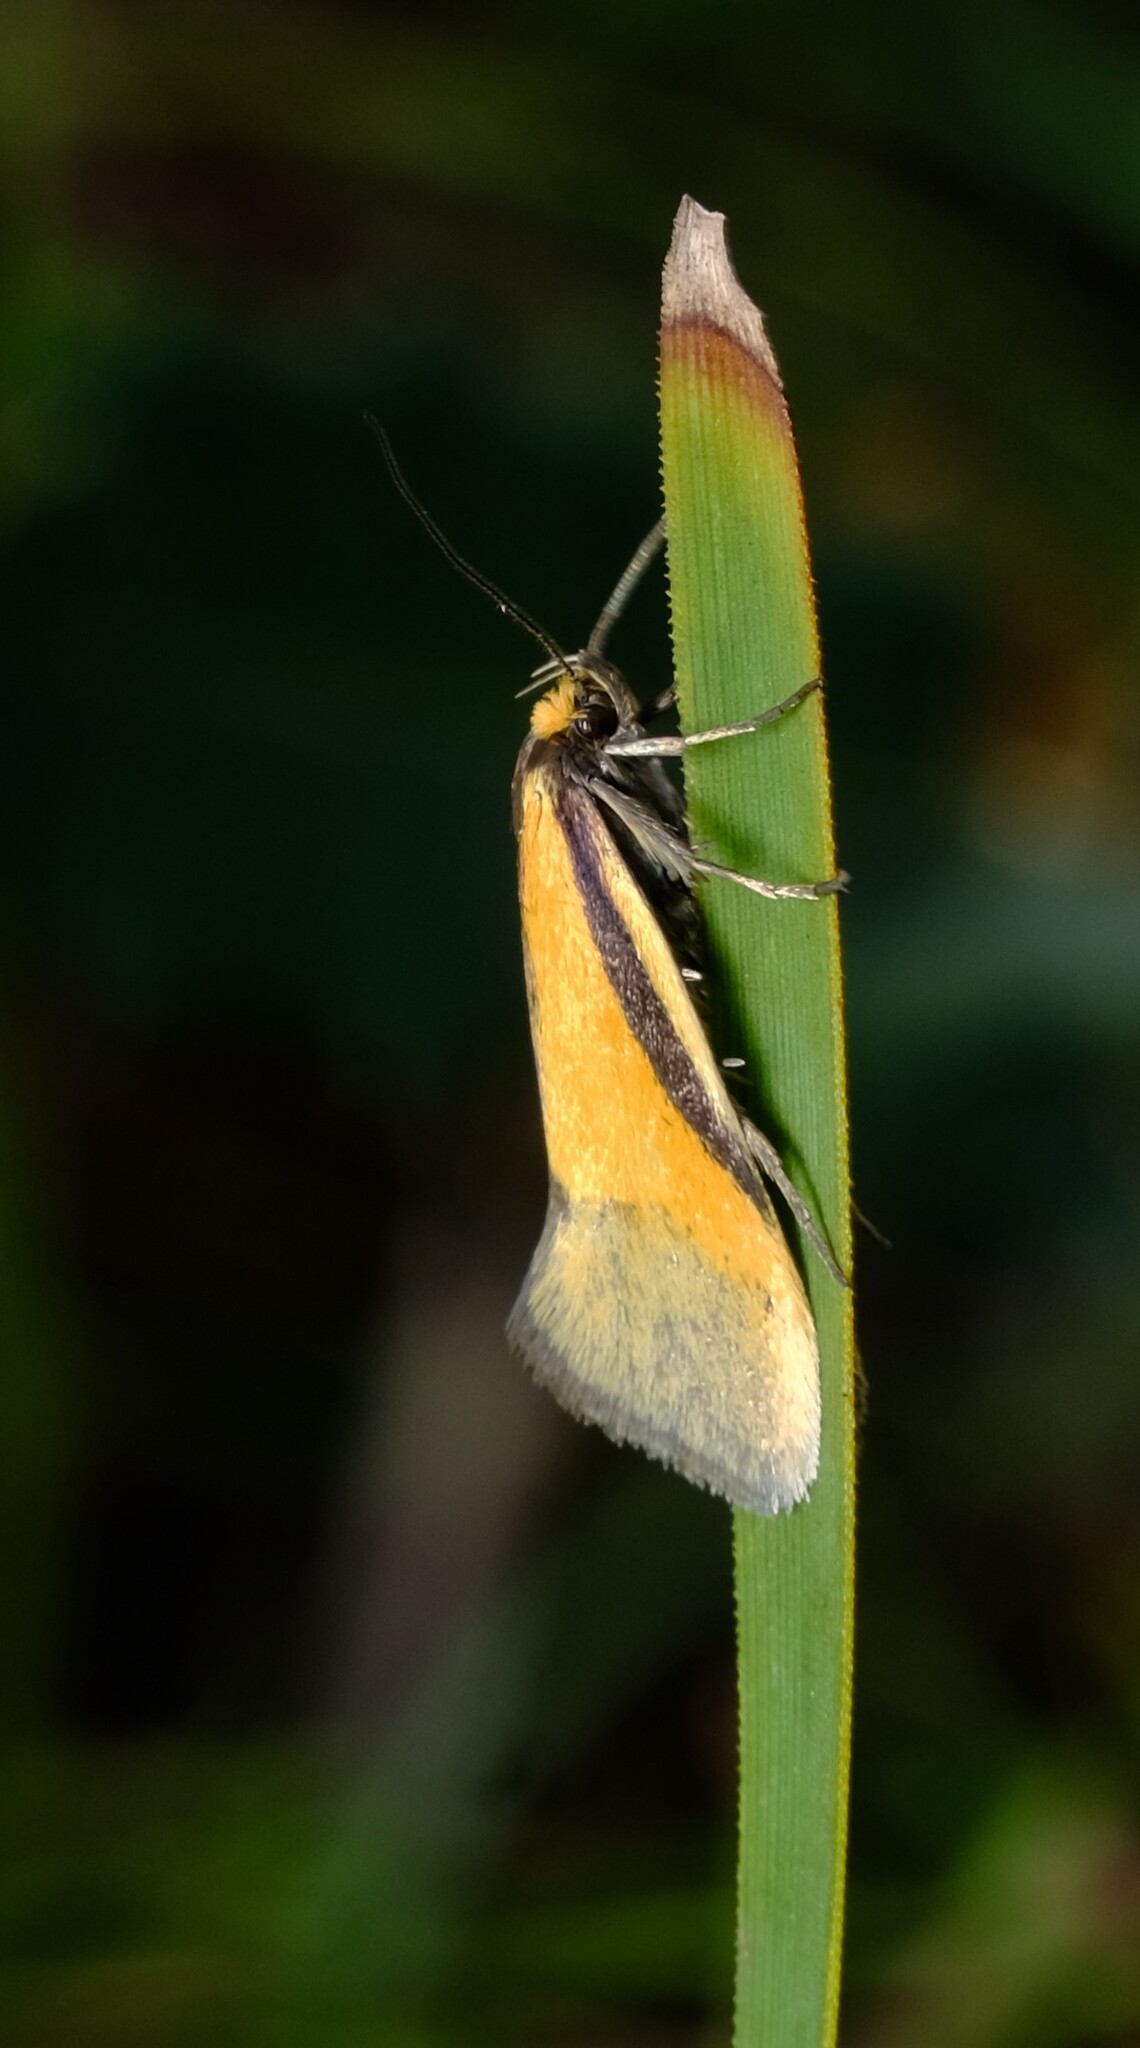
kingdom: Animalia
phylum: Arthropoda
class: Insecta
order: Lepidoptera
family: Oecophoridae
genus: Philobota
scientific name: Philobota arabella
